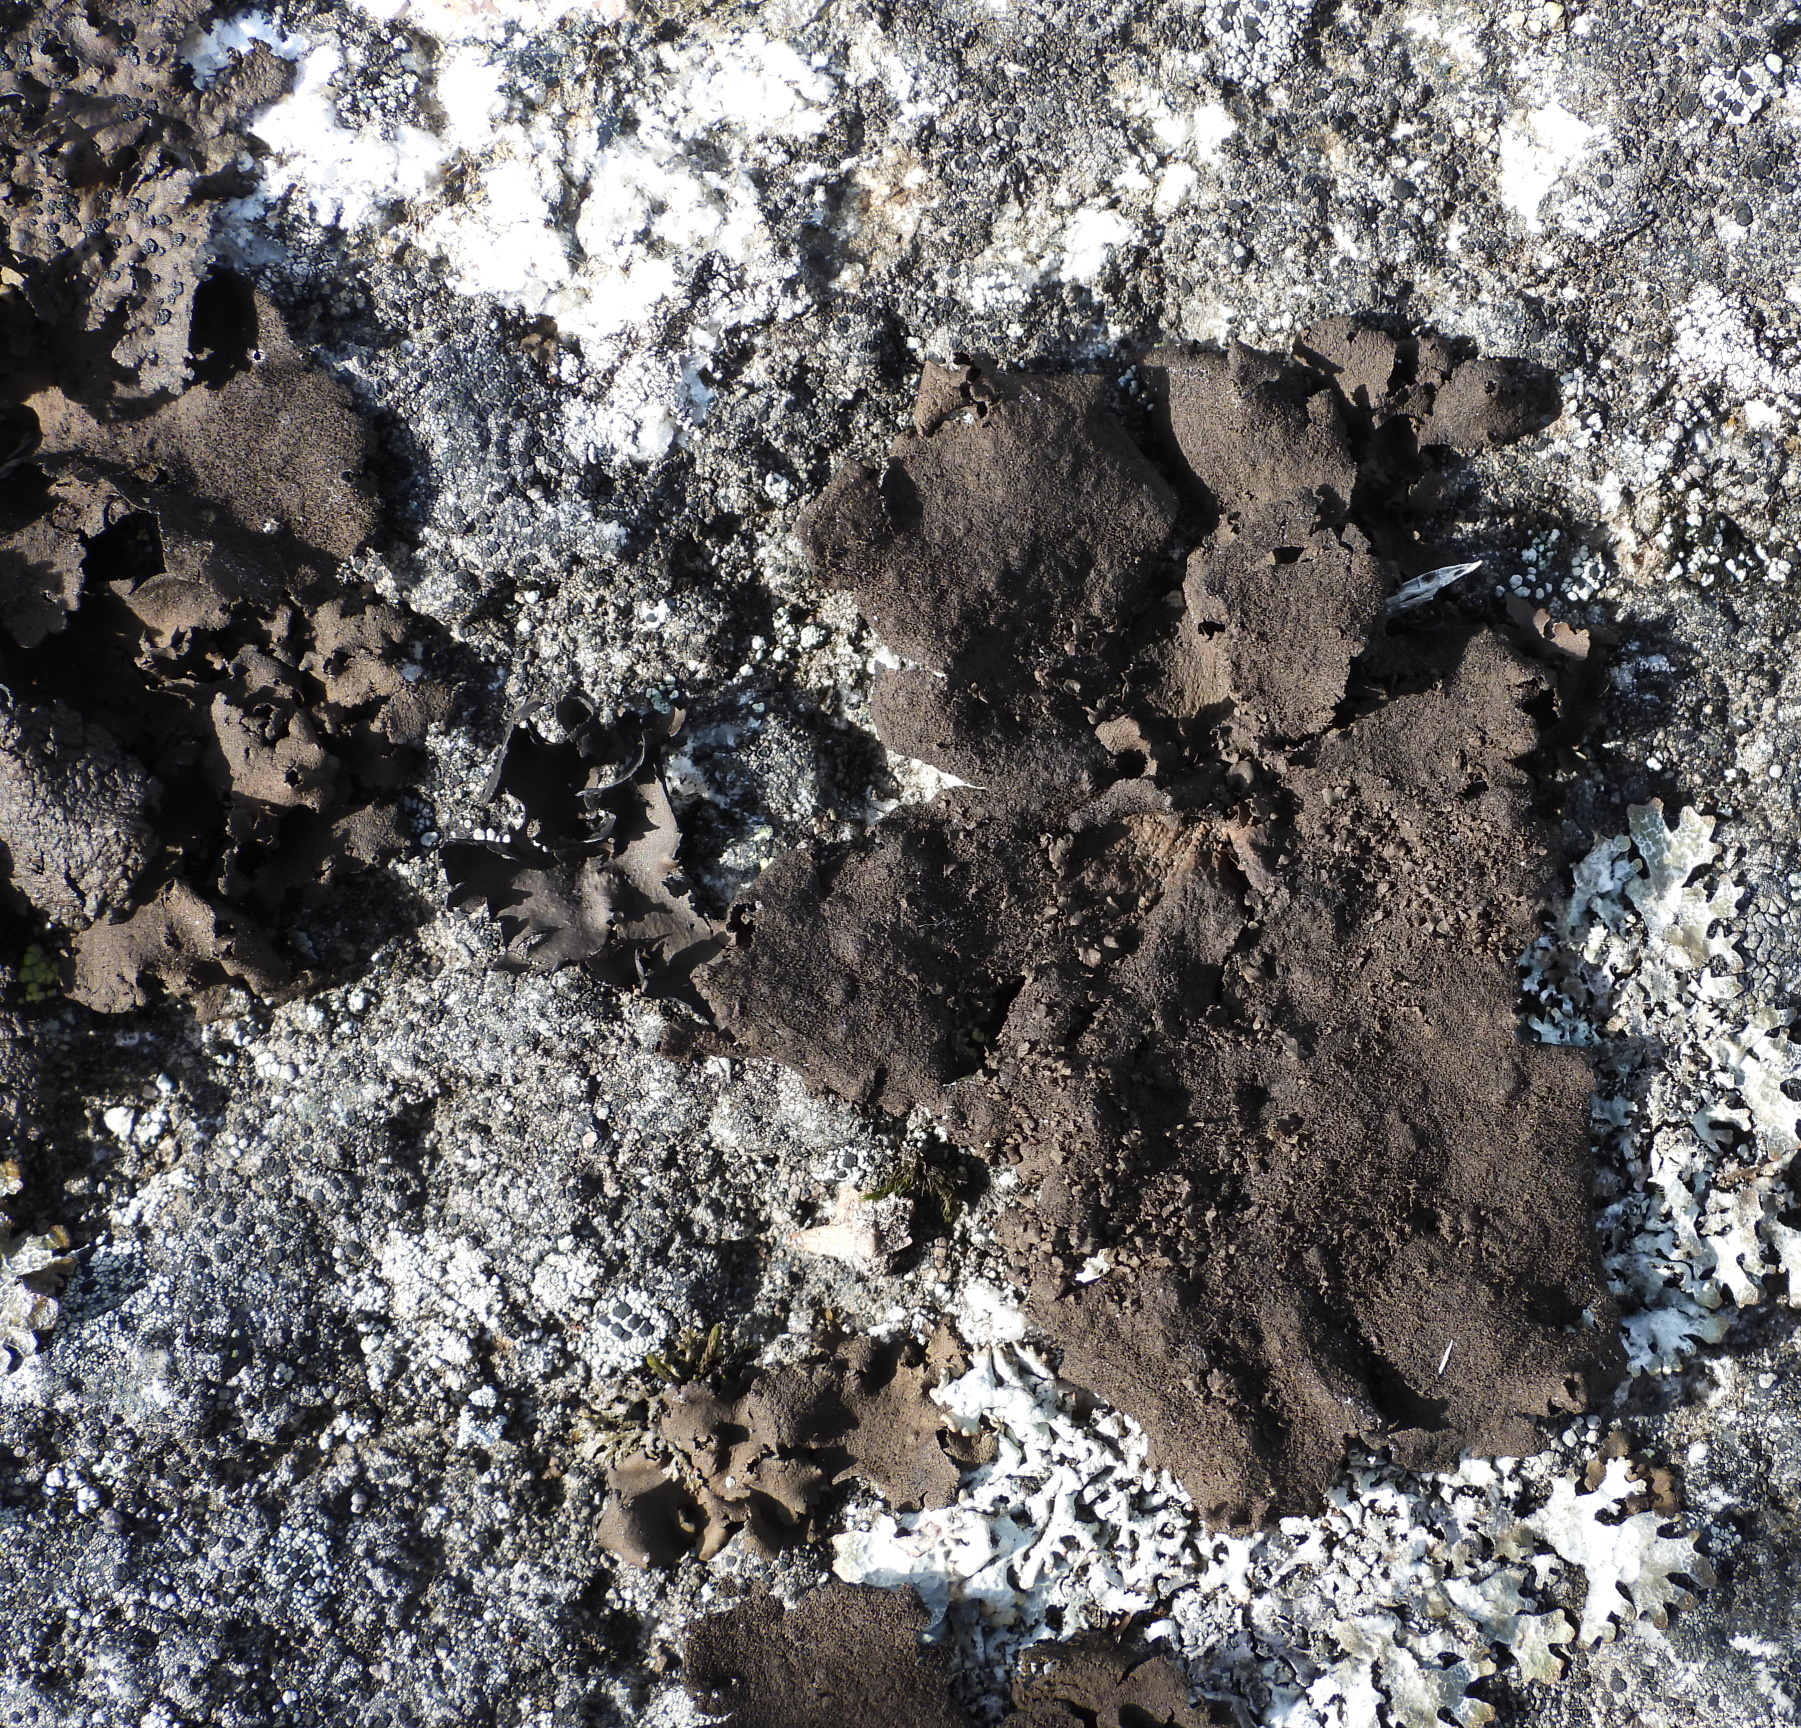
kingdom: Fungi
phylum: Ascomycota
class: Lecanoromycetes
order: Umbilicariales
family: Umbilicariaceae
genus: Umbilicaria
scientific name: Umbilicaria deusta
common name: Peppered rock tripe
